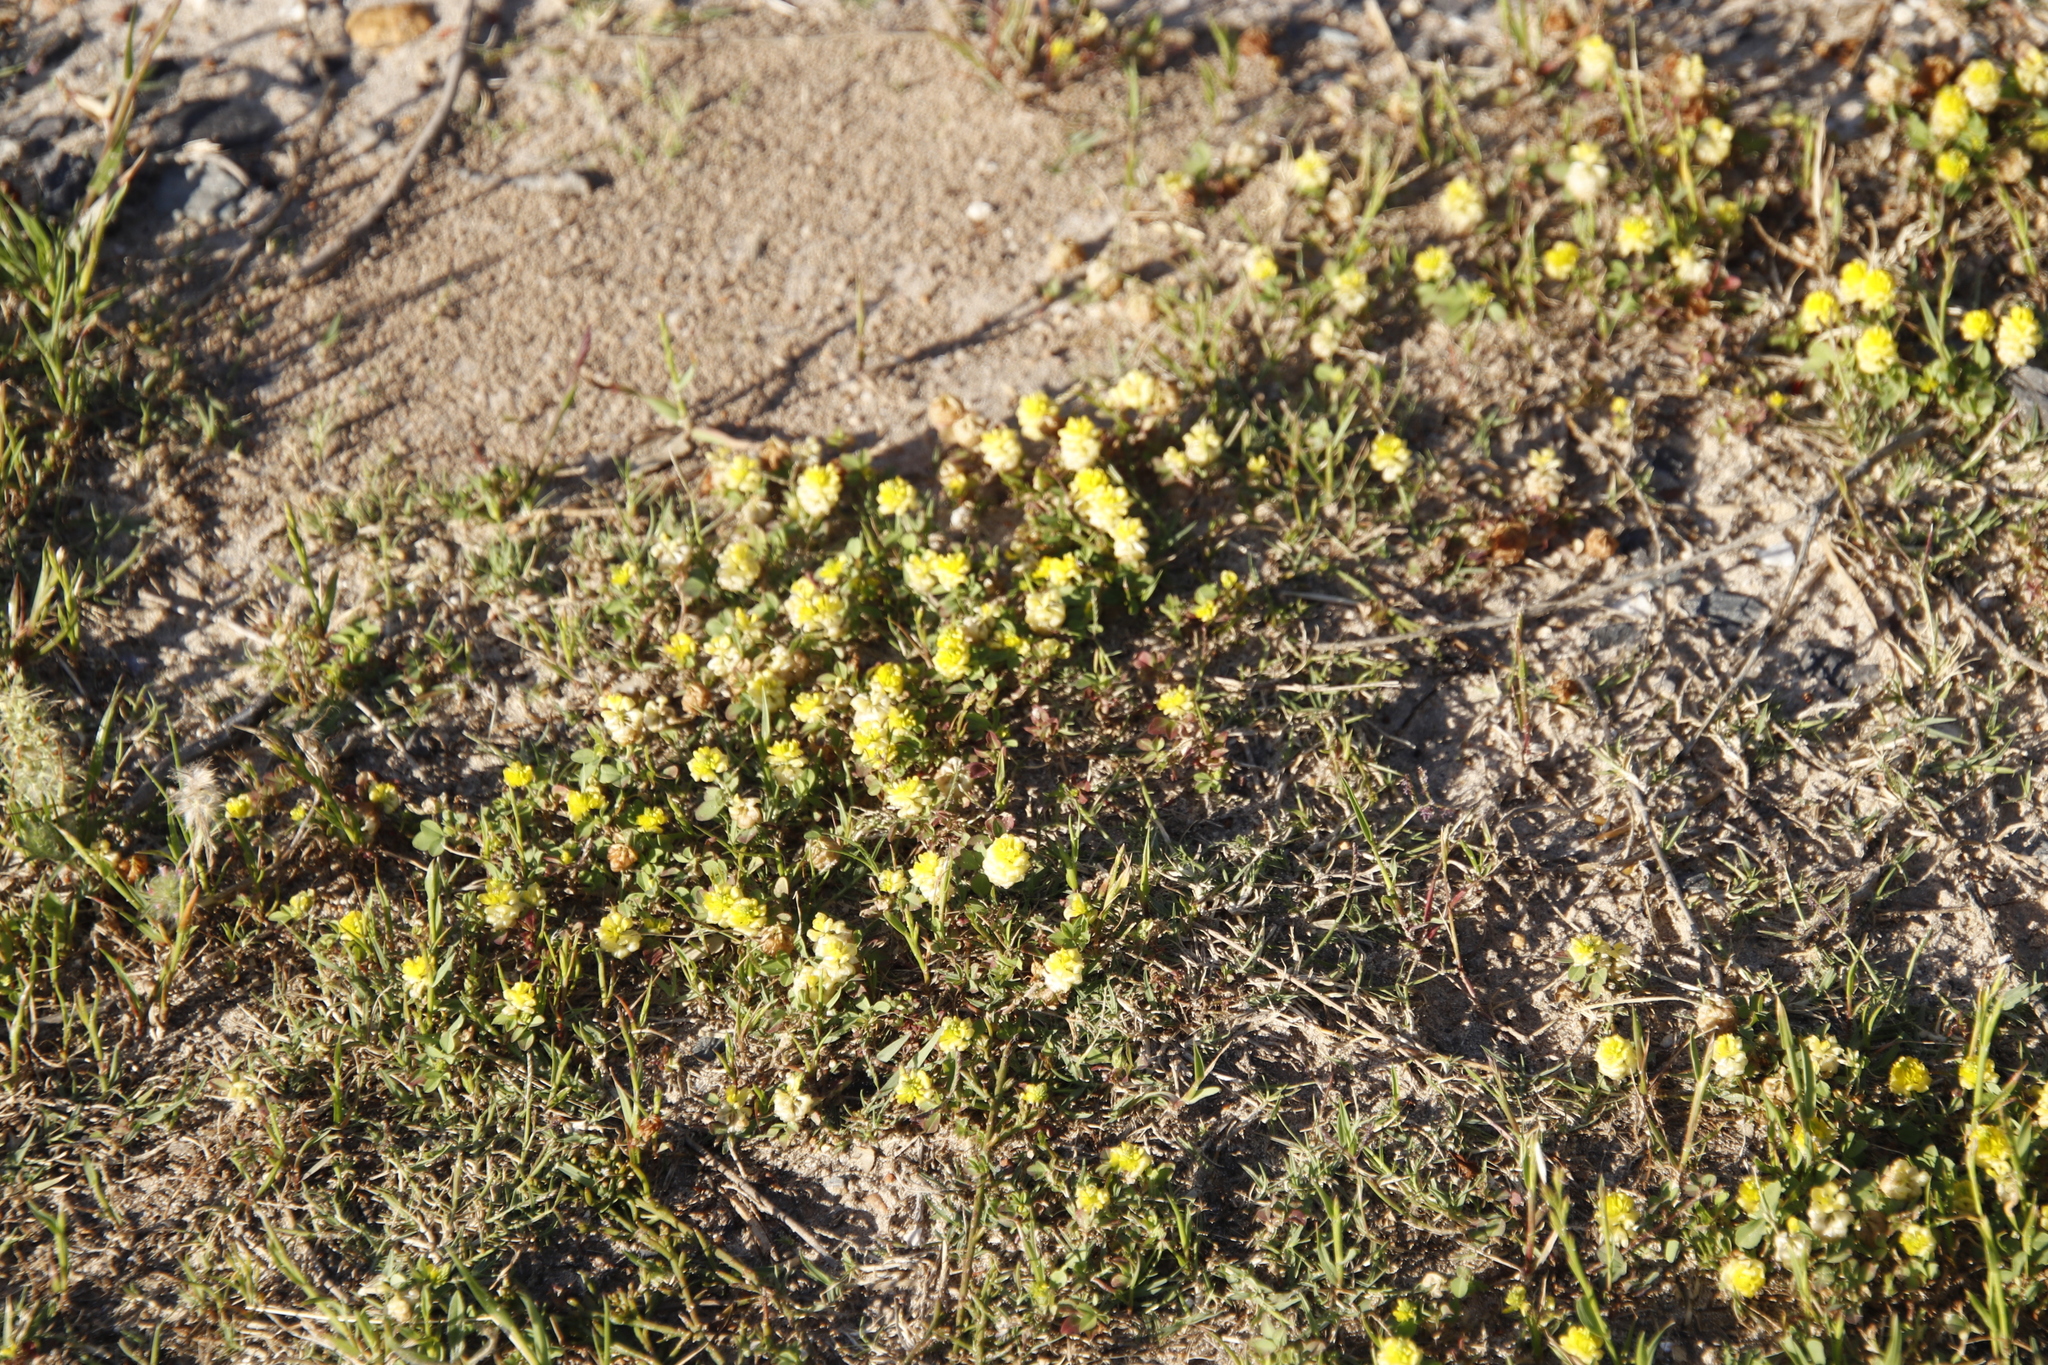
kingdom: Plantae
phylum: Tracheophyta
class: Magnoliopsida
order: Fabales
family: Fabaceae
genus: Trifolium
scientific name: Trifolium campestre
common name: Field clover
